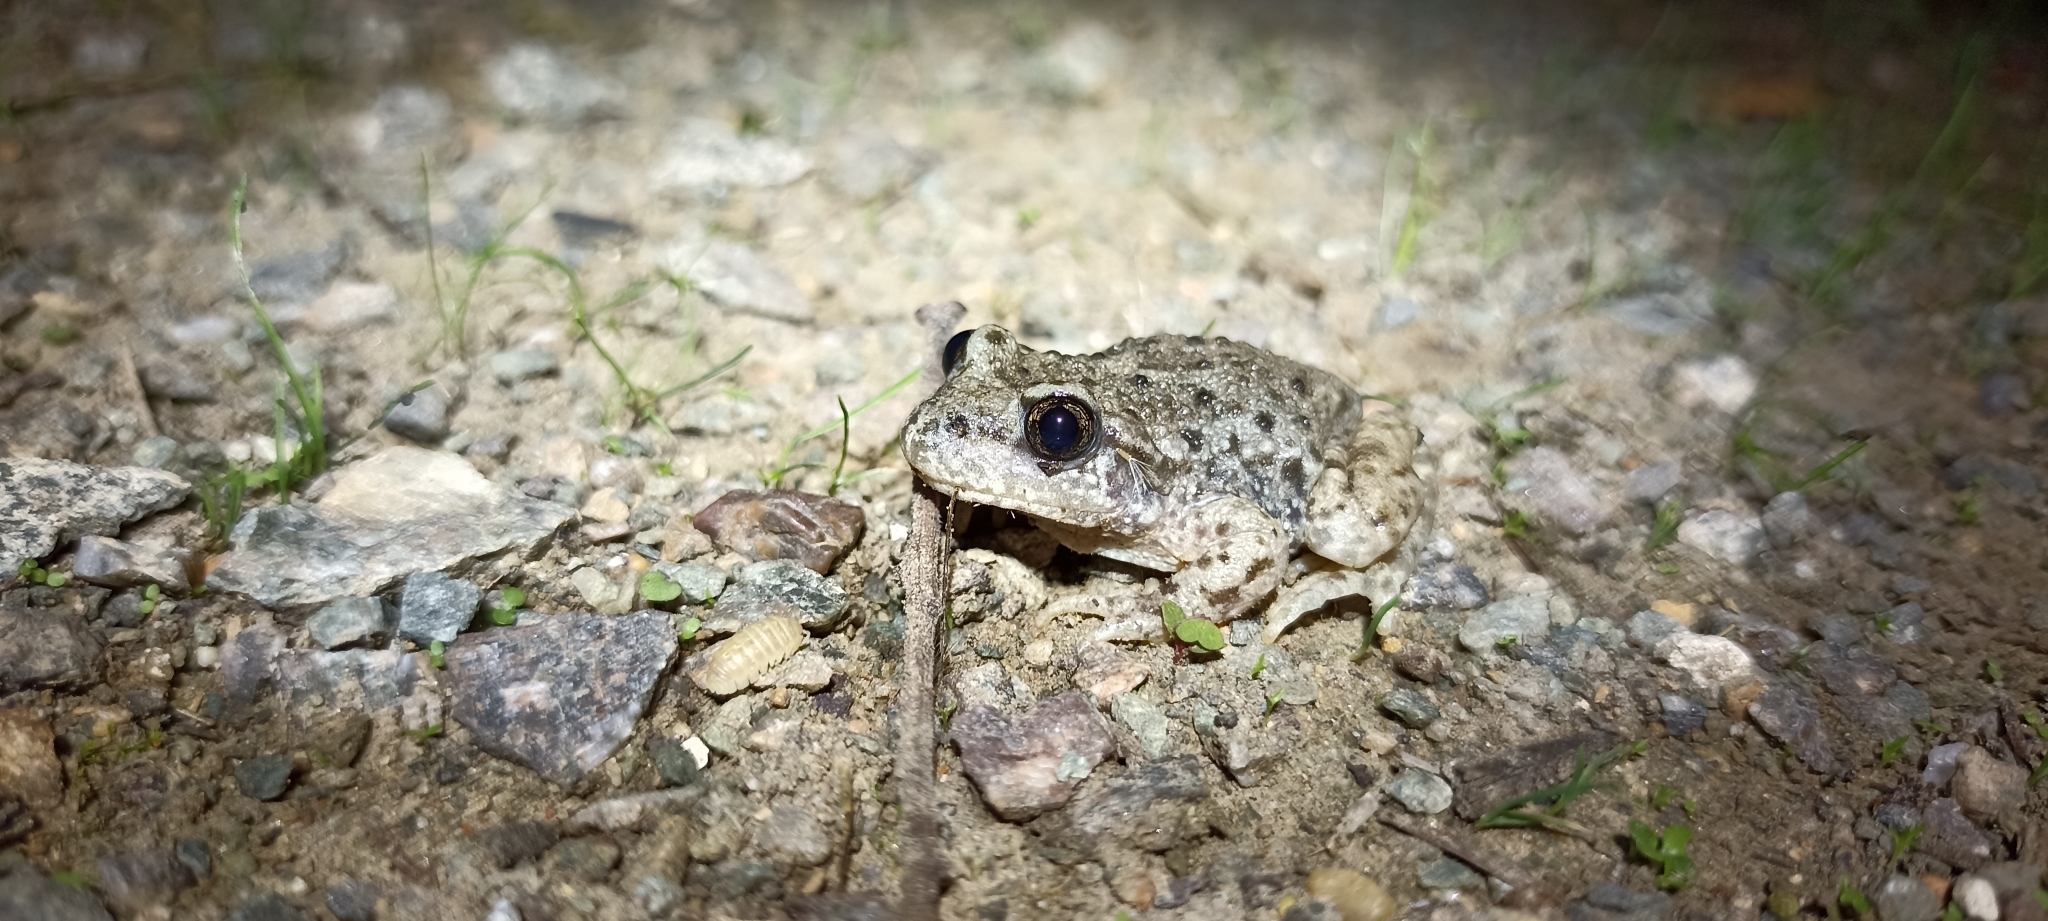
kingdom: Animalia
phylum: Chordata
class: Amphibia
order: Anura
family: Alytidae
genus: Alytes
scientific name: Alytes obstetricans
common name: Midwife toad
